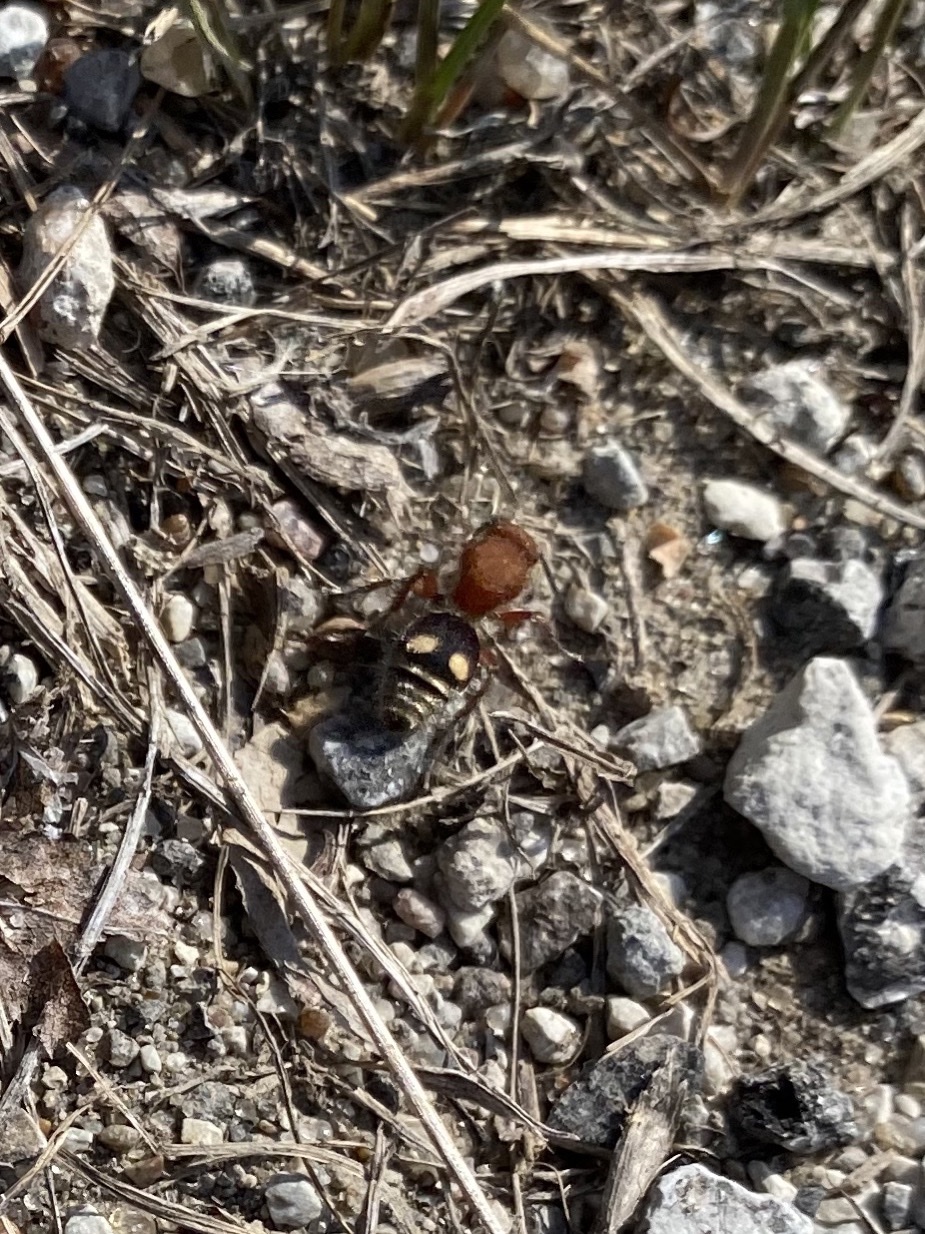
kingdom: Animalia
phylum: Arthropoda
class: Insecta
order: Hymenoptera
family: Mutillidae
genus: Dasymutilla
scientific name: Dasymutilla
